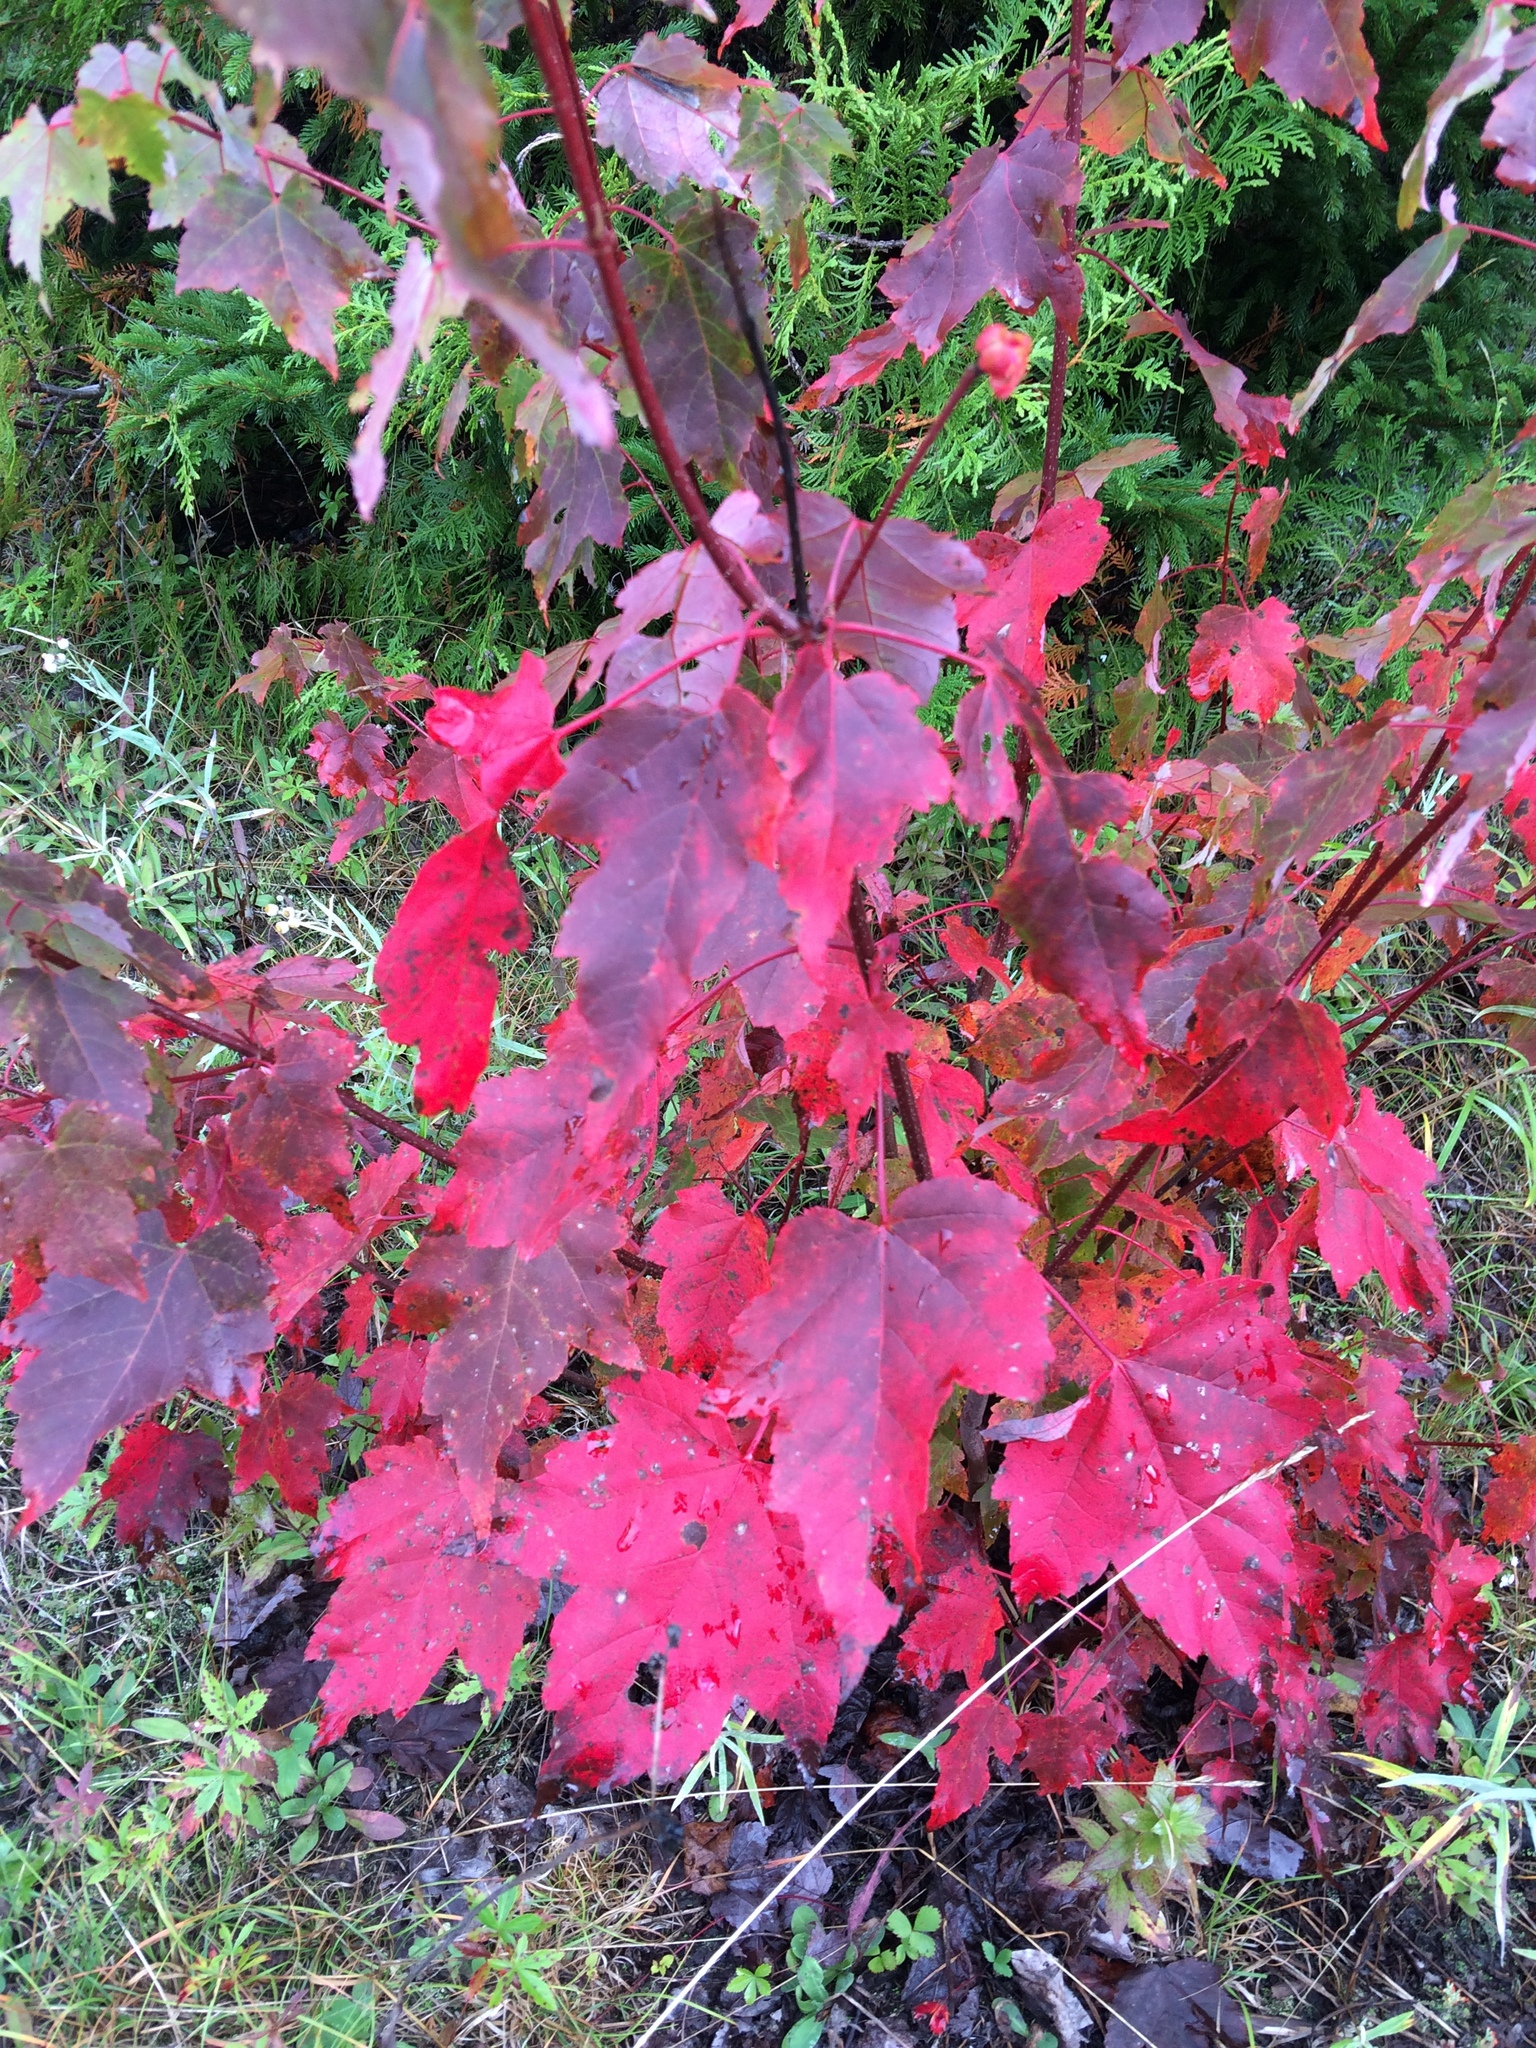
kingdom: Plantae
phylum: Tracheophyta
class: Magnoliopsida
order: Sapindales
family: Sapindaceae
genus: Acer
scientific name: Acer rubrum
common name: Red maple
